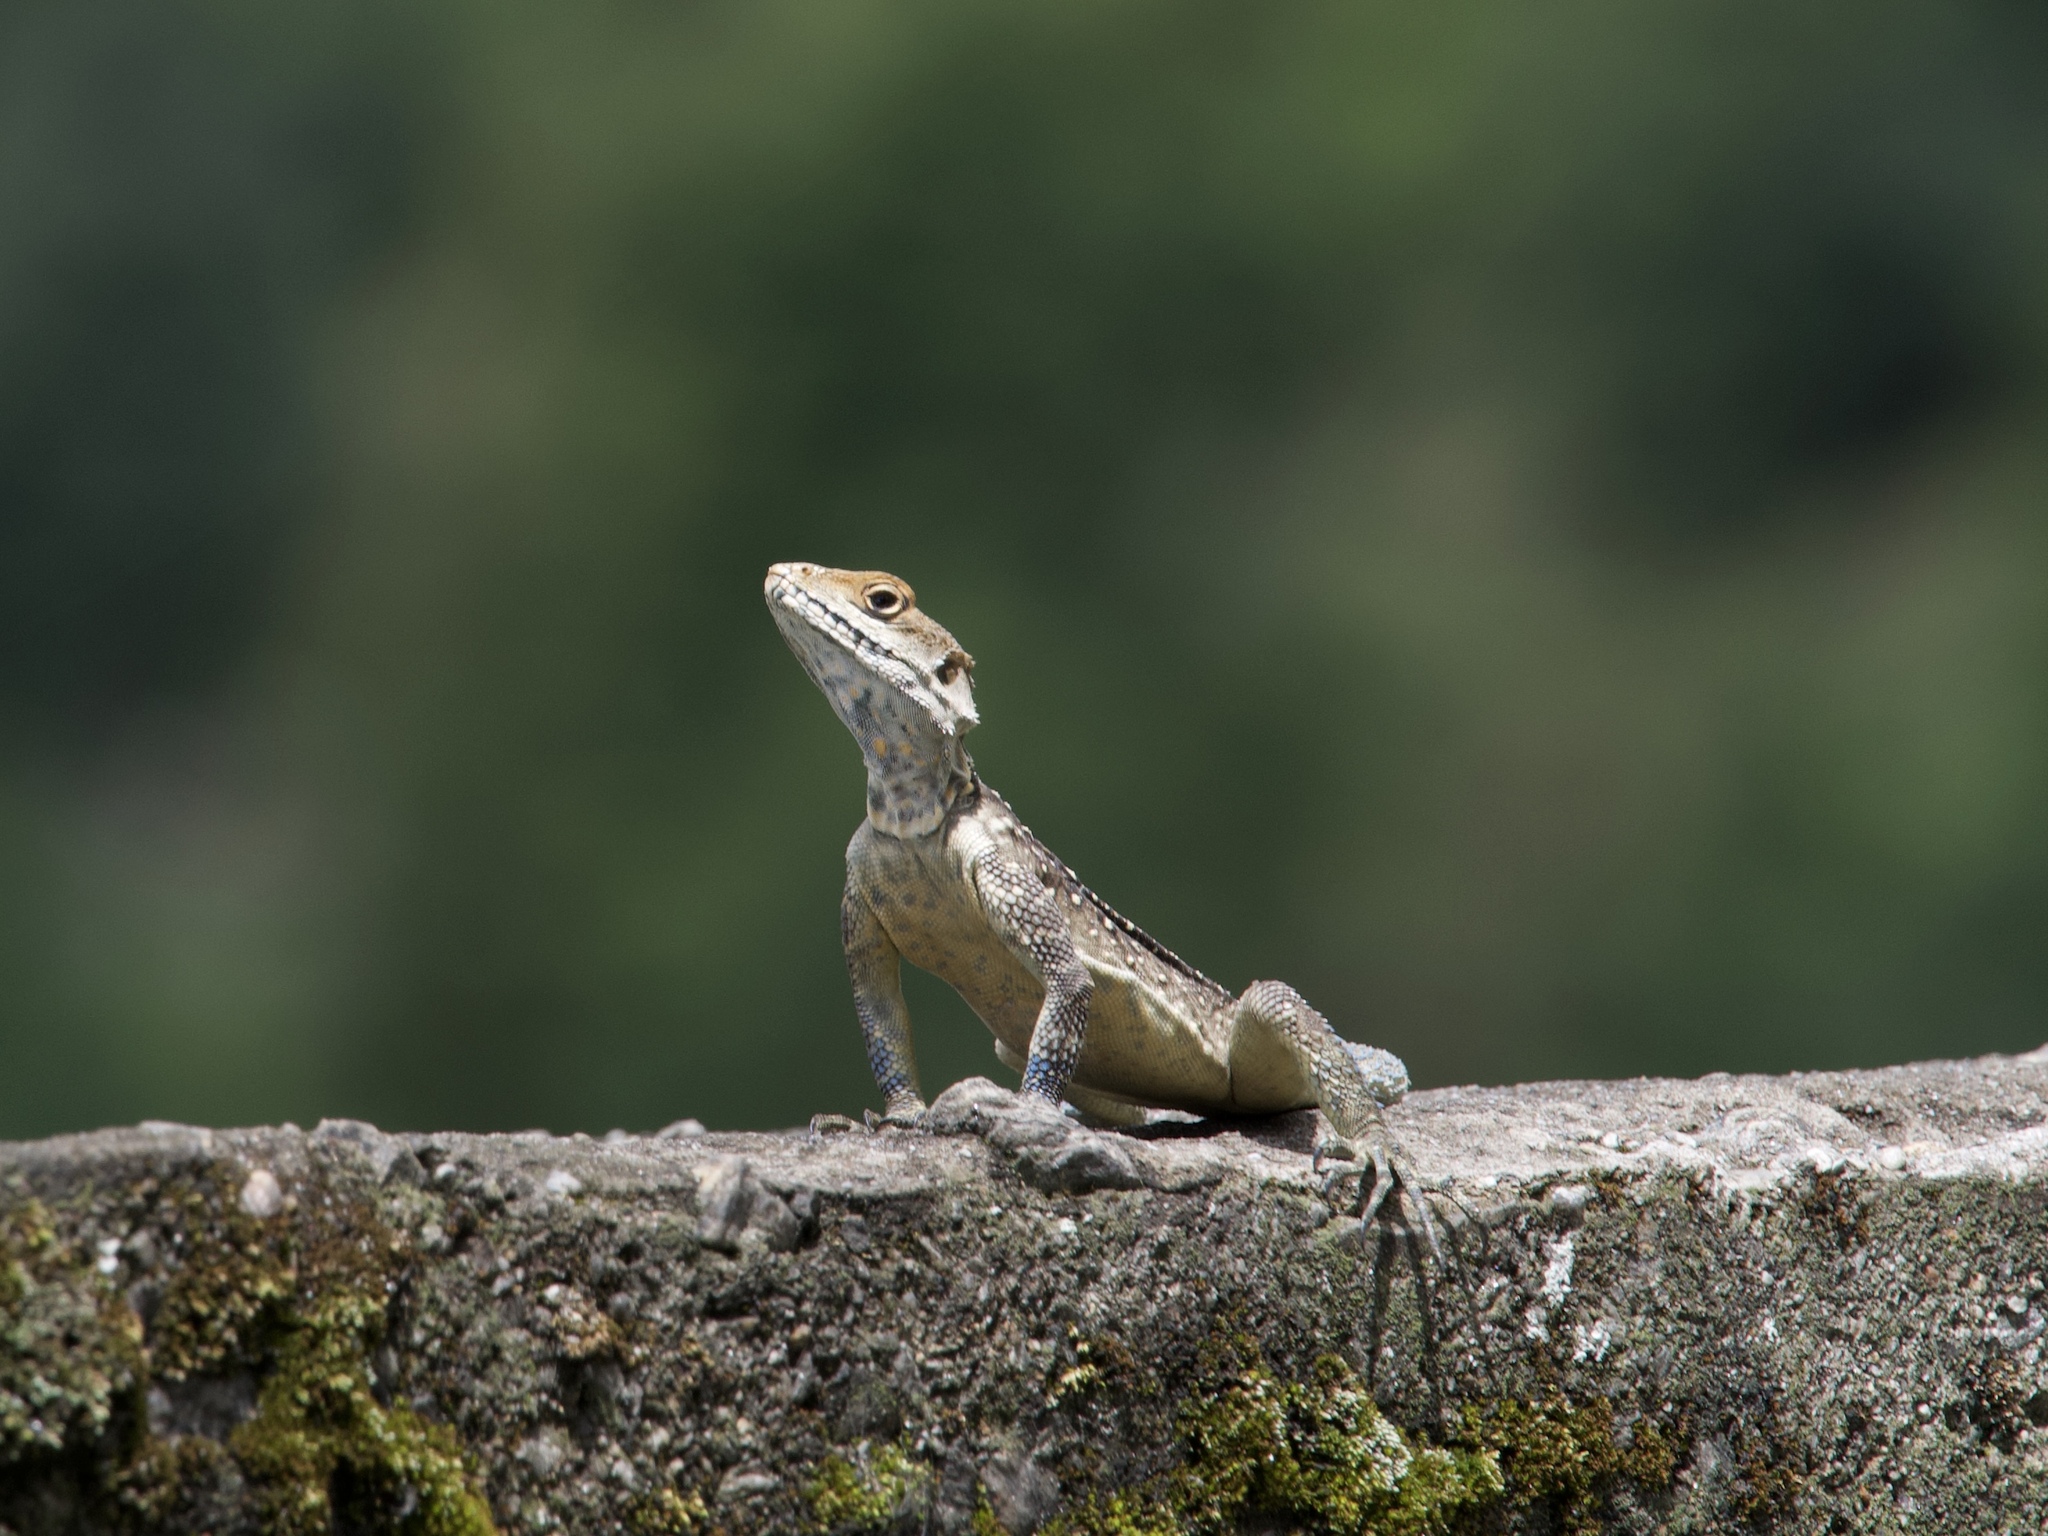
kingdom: Animalia
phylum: Chordata
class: Squamata
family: Agamidae
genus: Laudakia
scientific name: Laudakia tuberculata
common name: Kashmir rock agama
